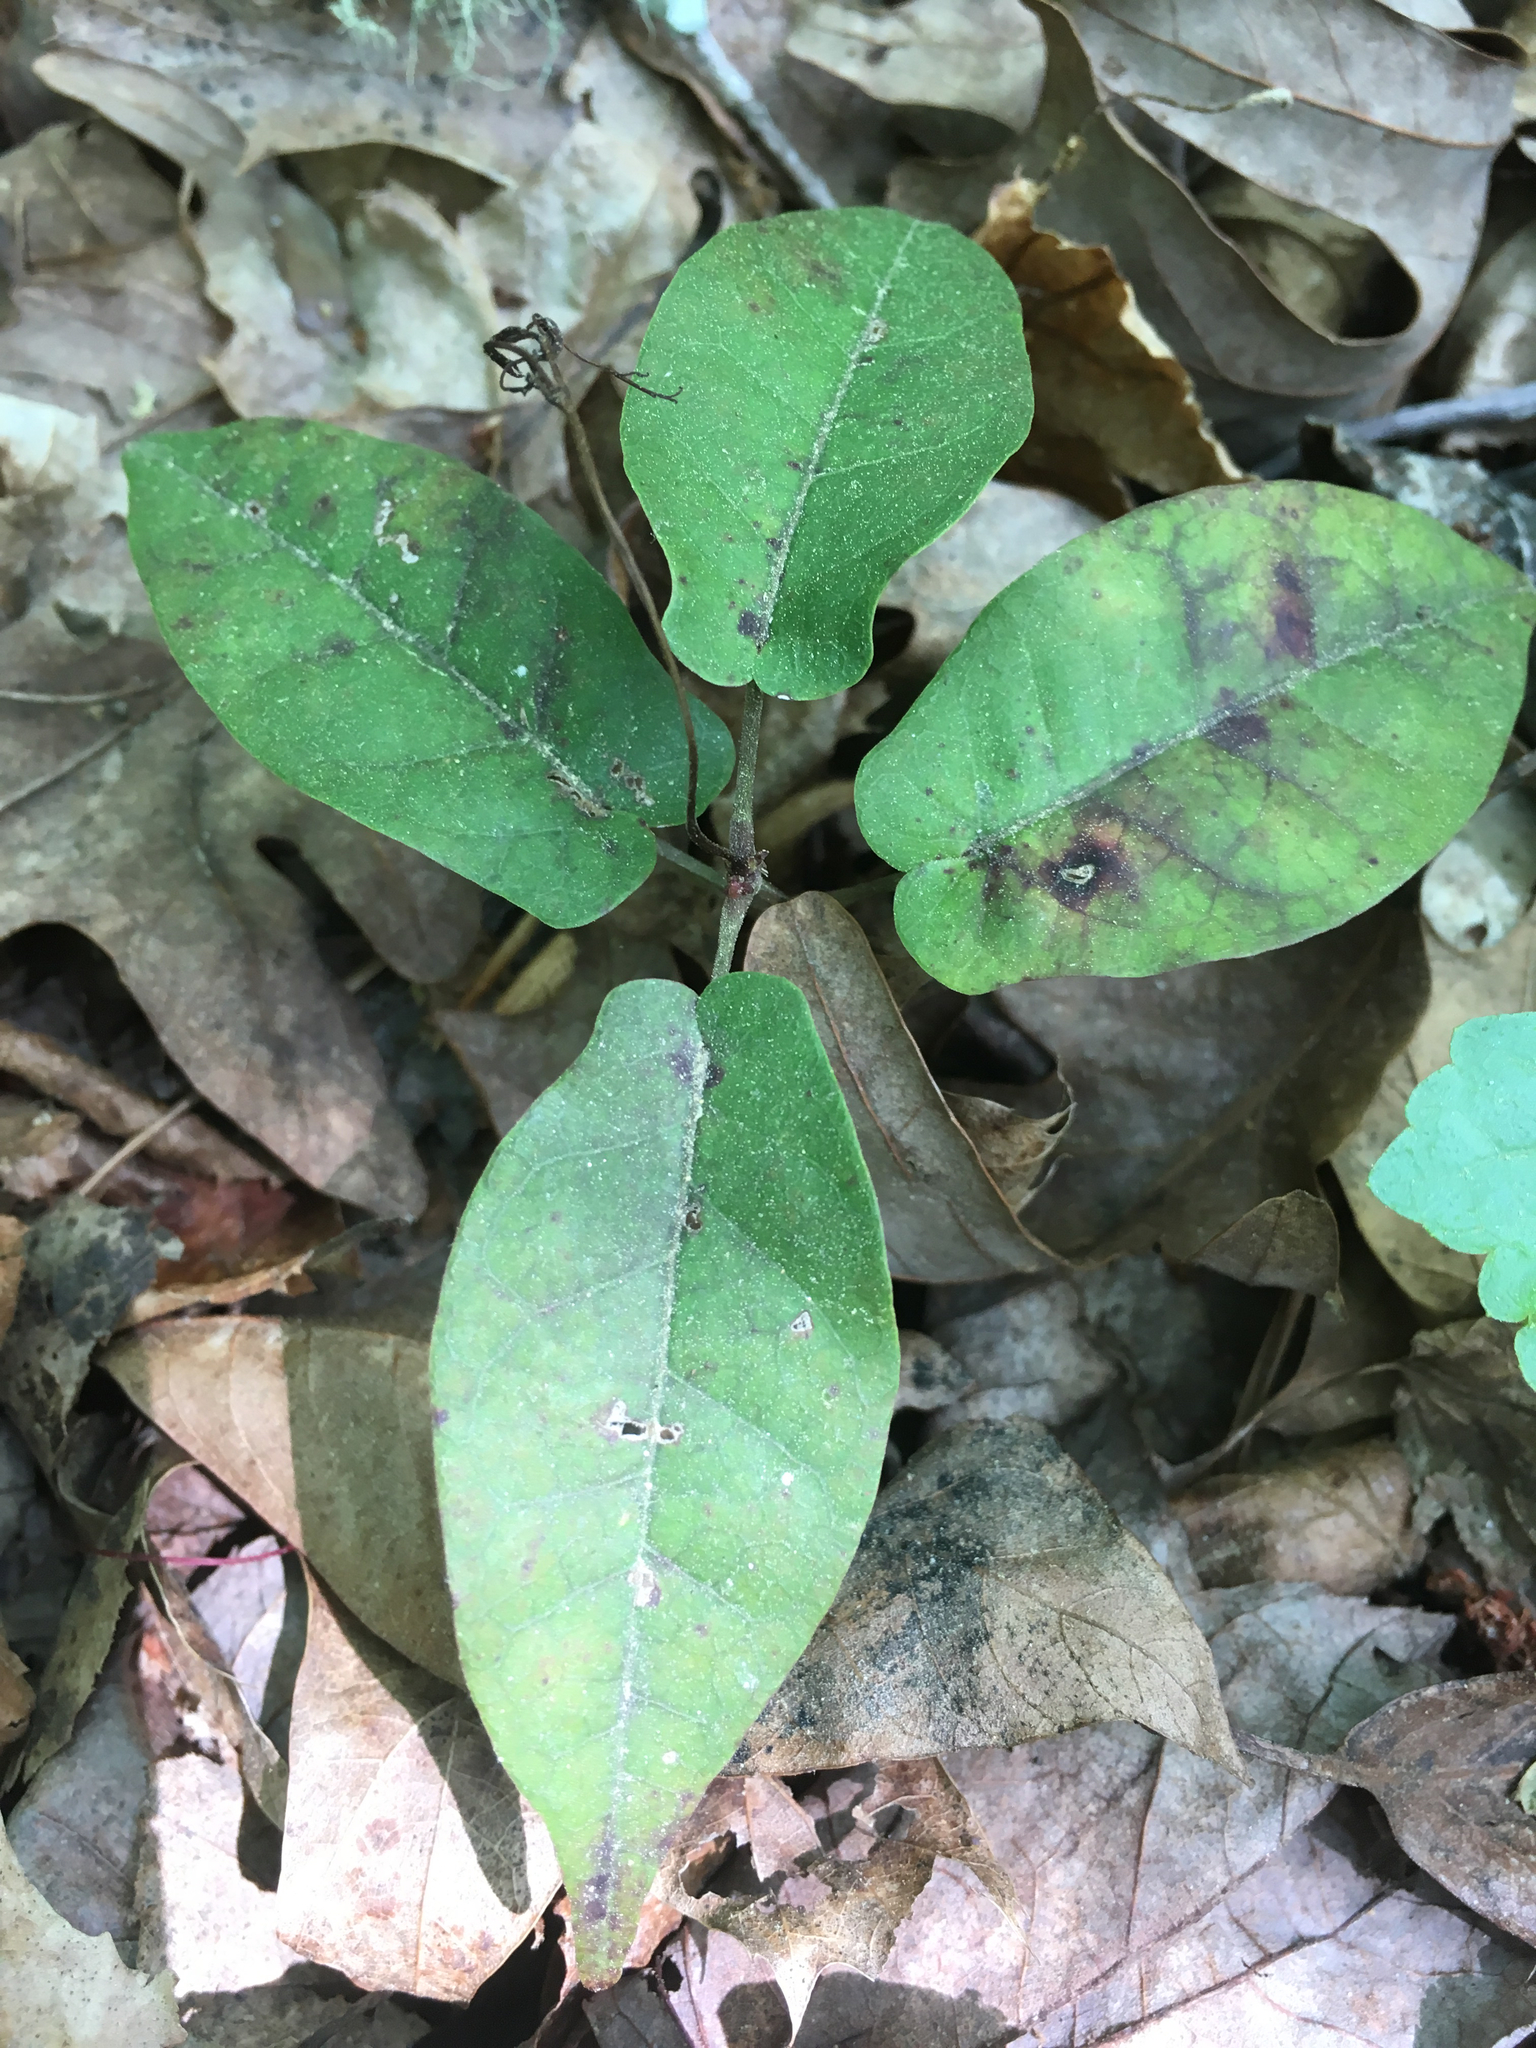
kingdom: Plantae
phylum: Tracheophyta
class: Magnoliopsida
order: Lamiales
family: Bignoniaceae
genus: Bignonia
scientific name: Bignonia capreolata
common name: Crossvine
